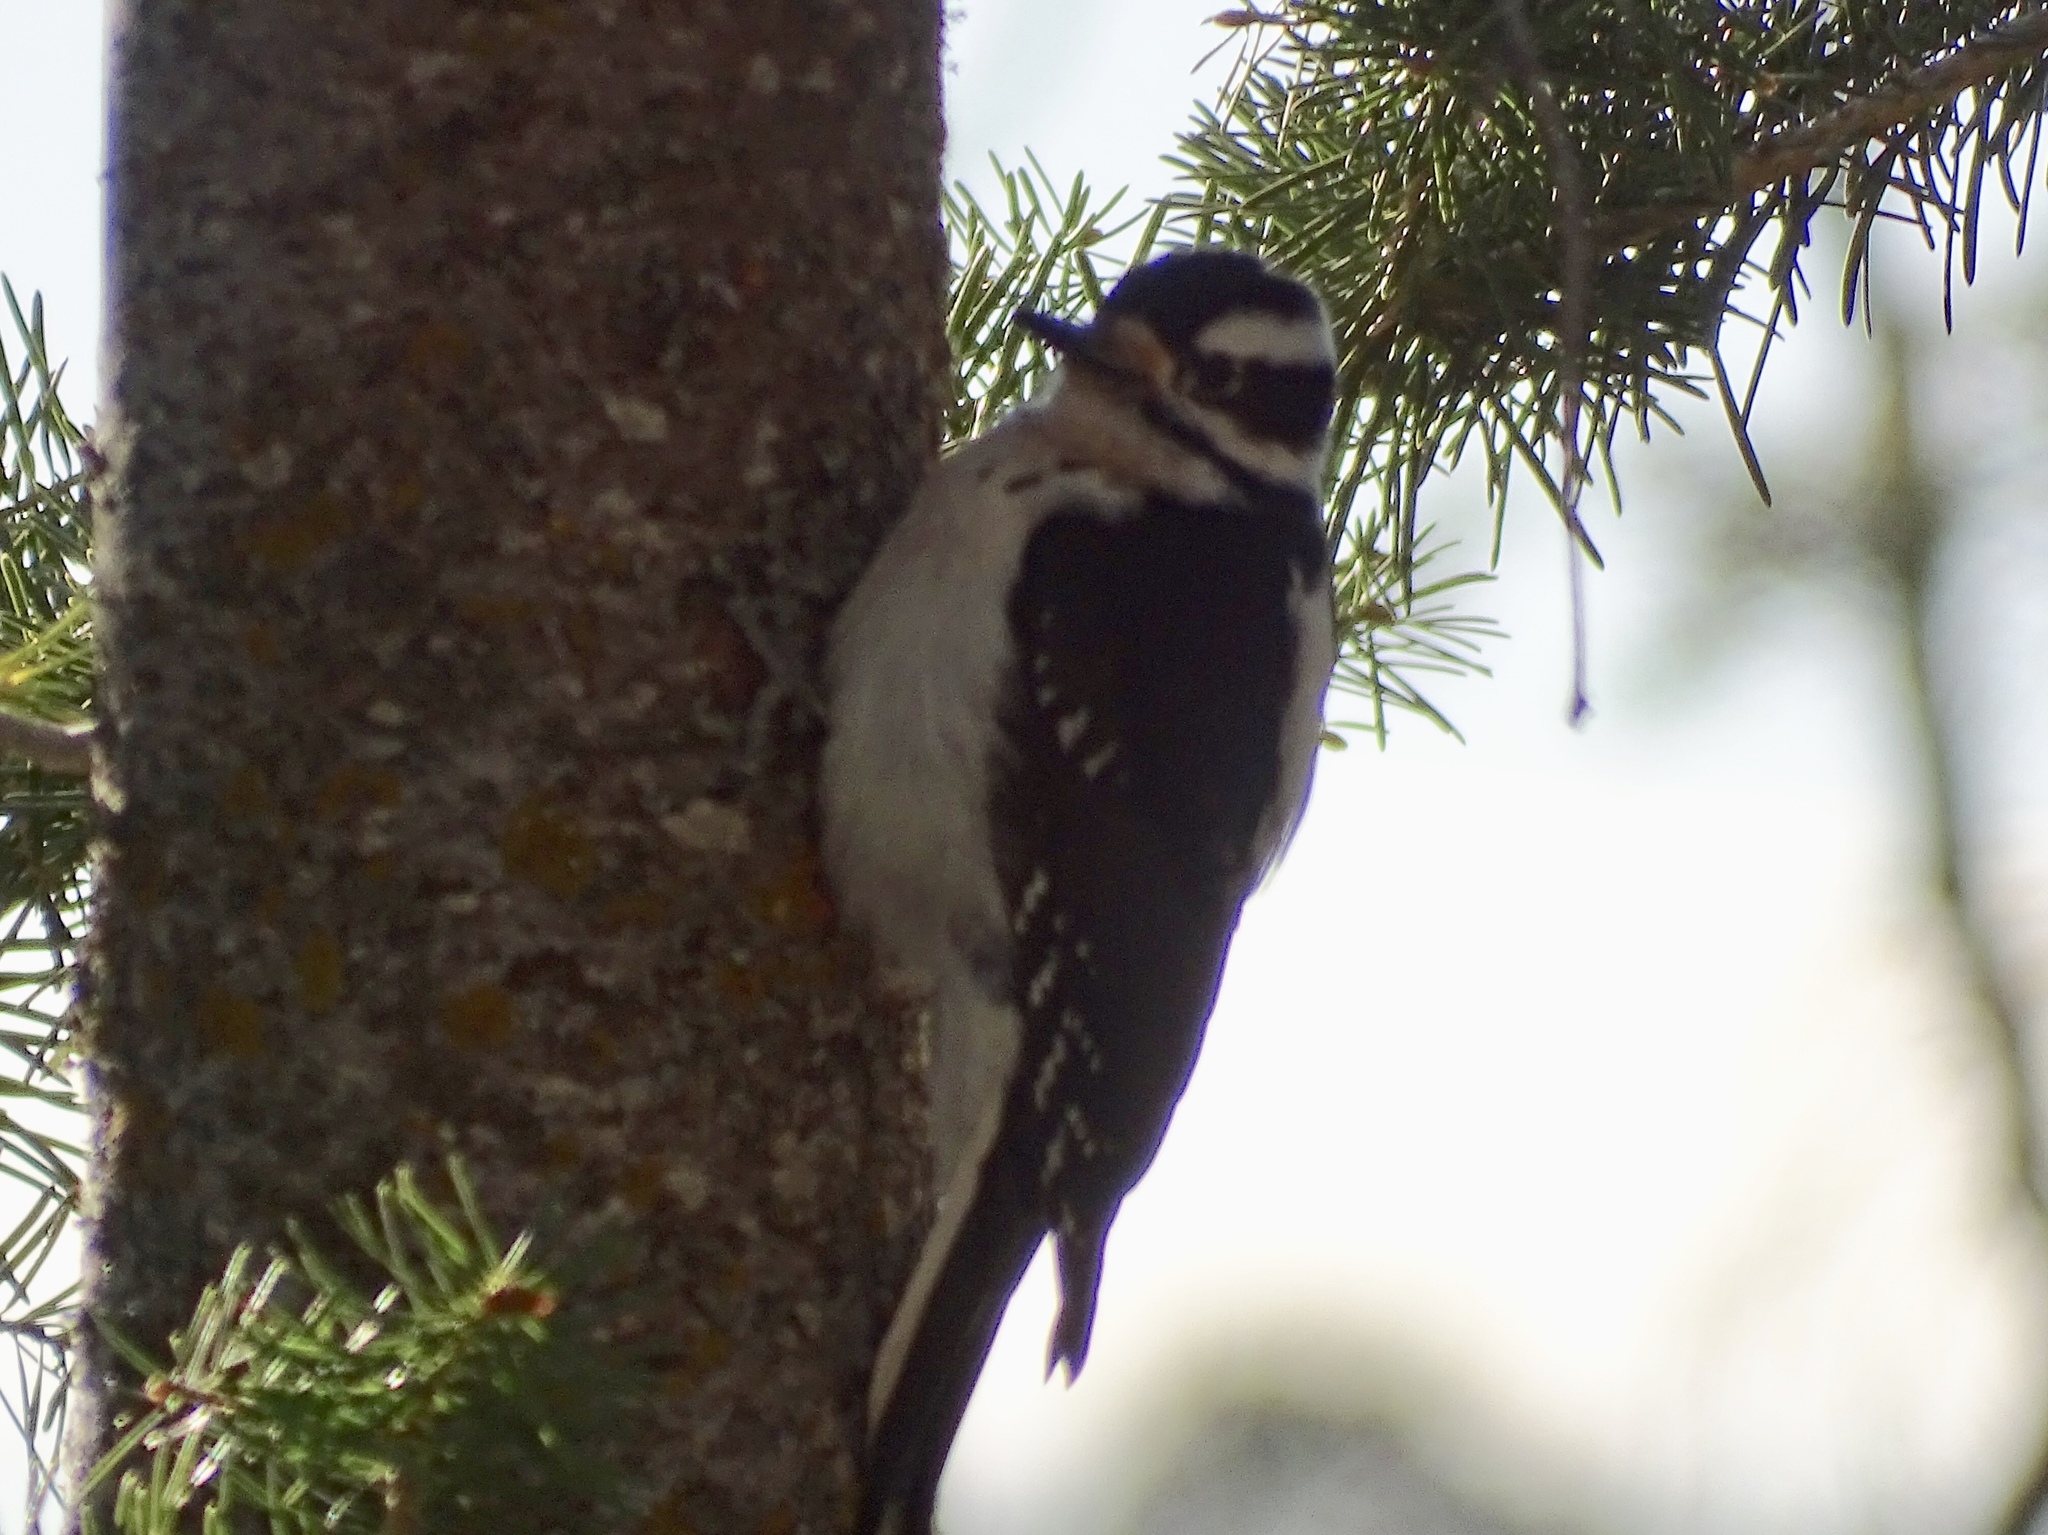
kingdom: Animalia
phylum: Chordata
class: Aves
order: Piciformes
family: Picidae
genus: Leuconotopicus
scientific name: Leuconotopicus villosus
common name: Hairy woodpecker
